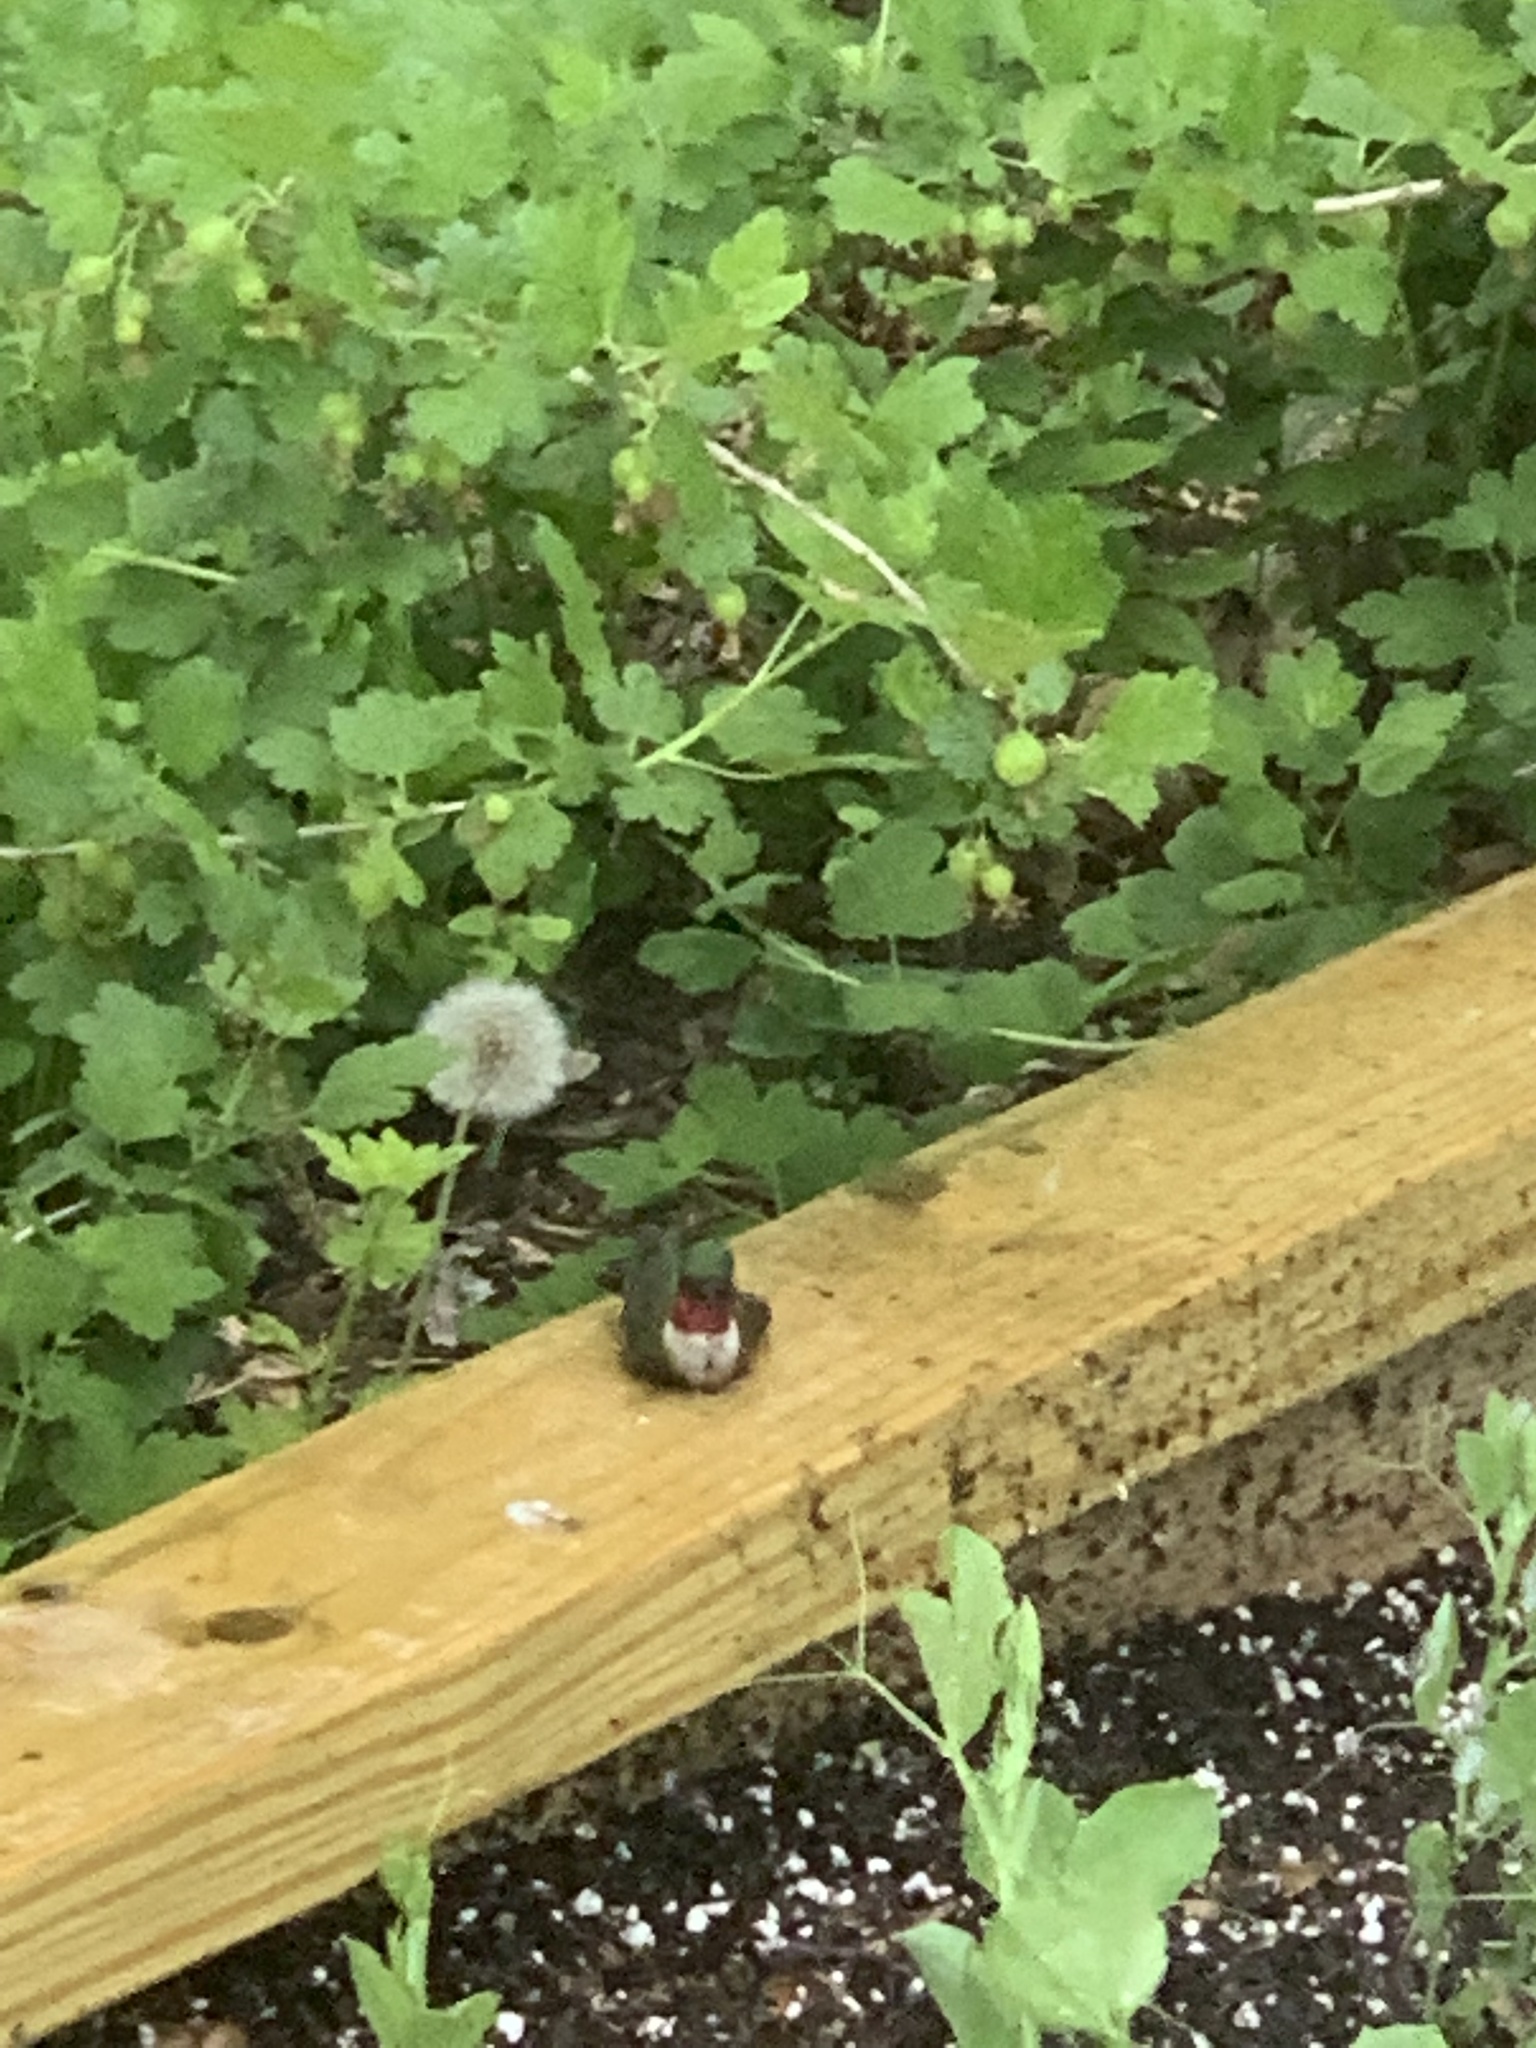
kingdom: Animalia
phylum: Chordata
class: Aves
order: Apodiformes
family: Trochilidae
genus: Archilochus
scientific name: Archilochus colubris
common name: Ruby-throated hummingbird
